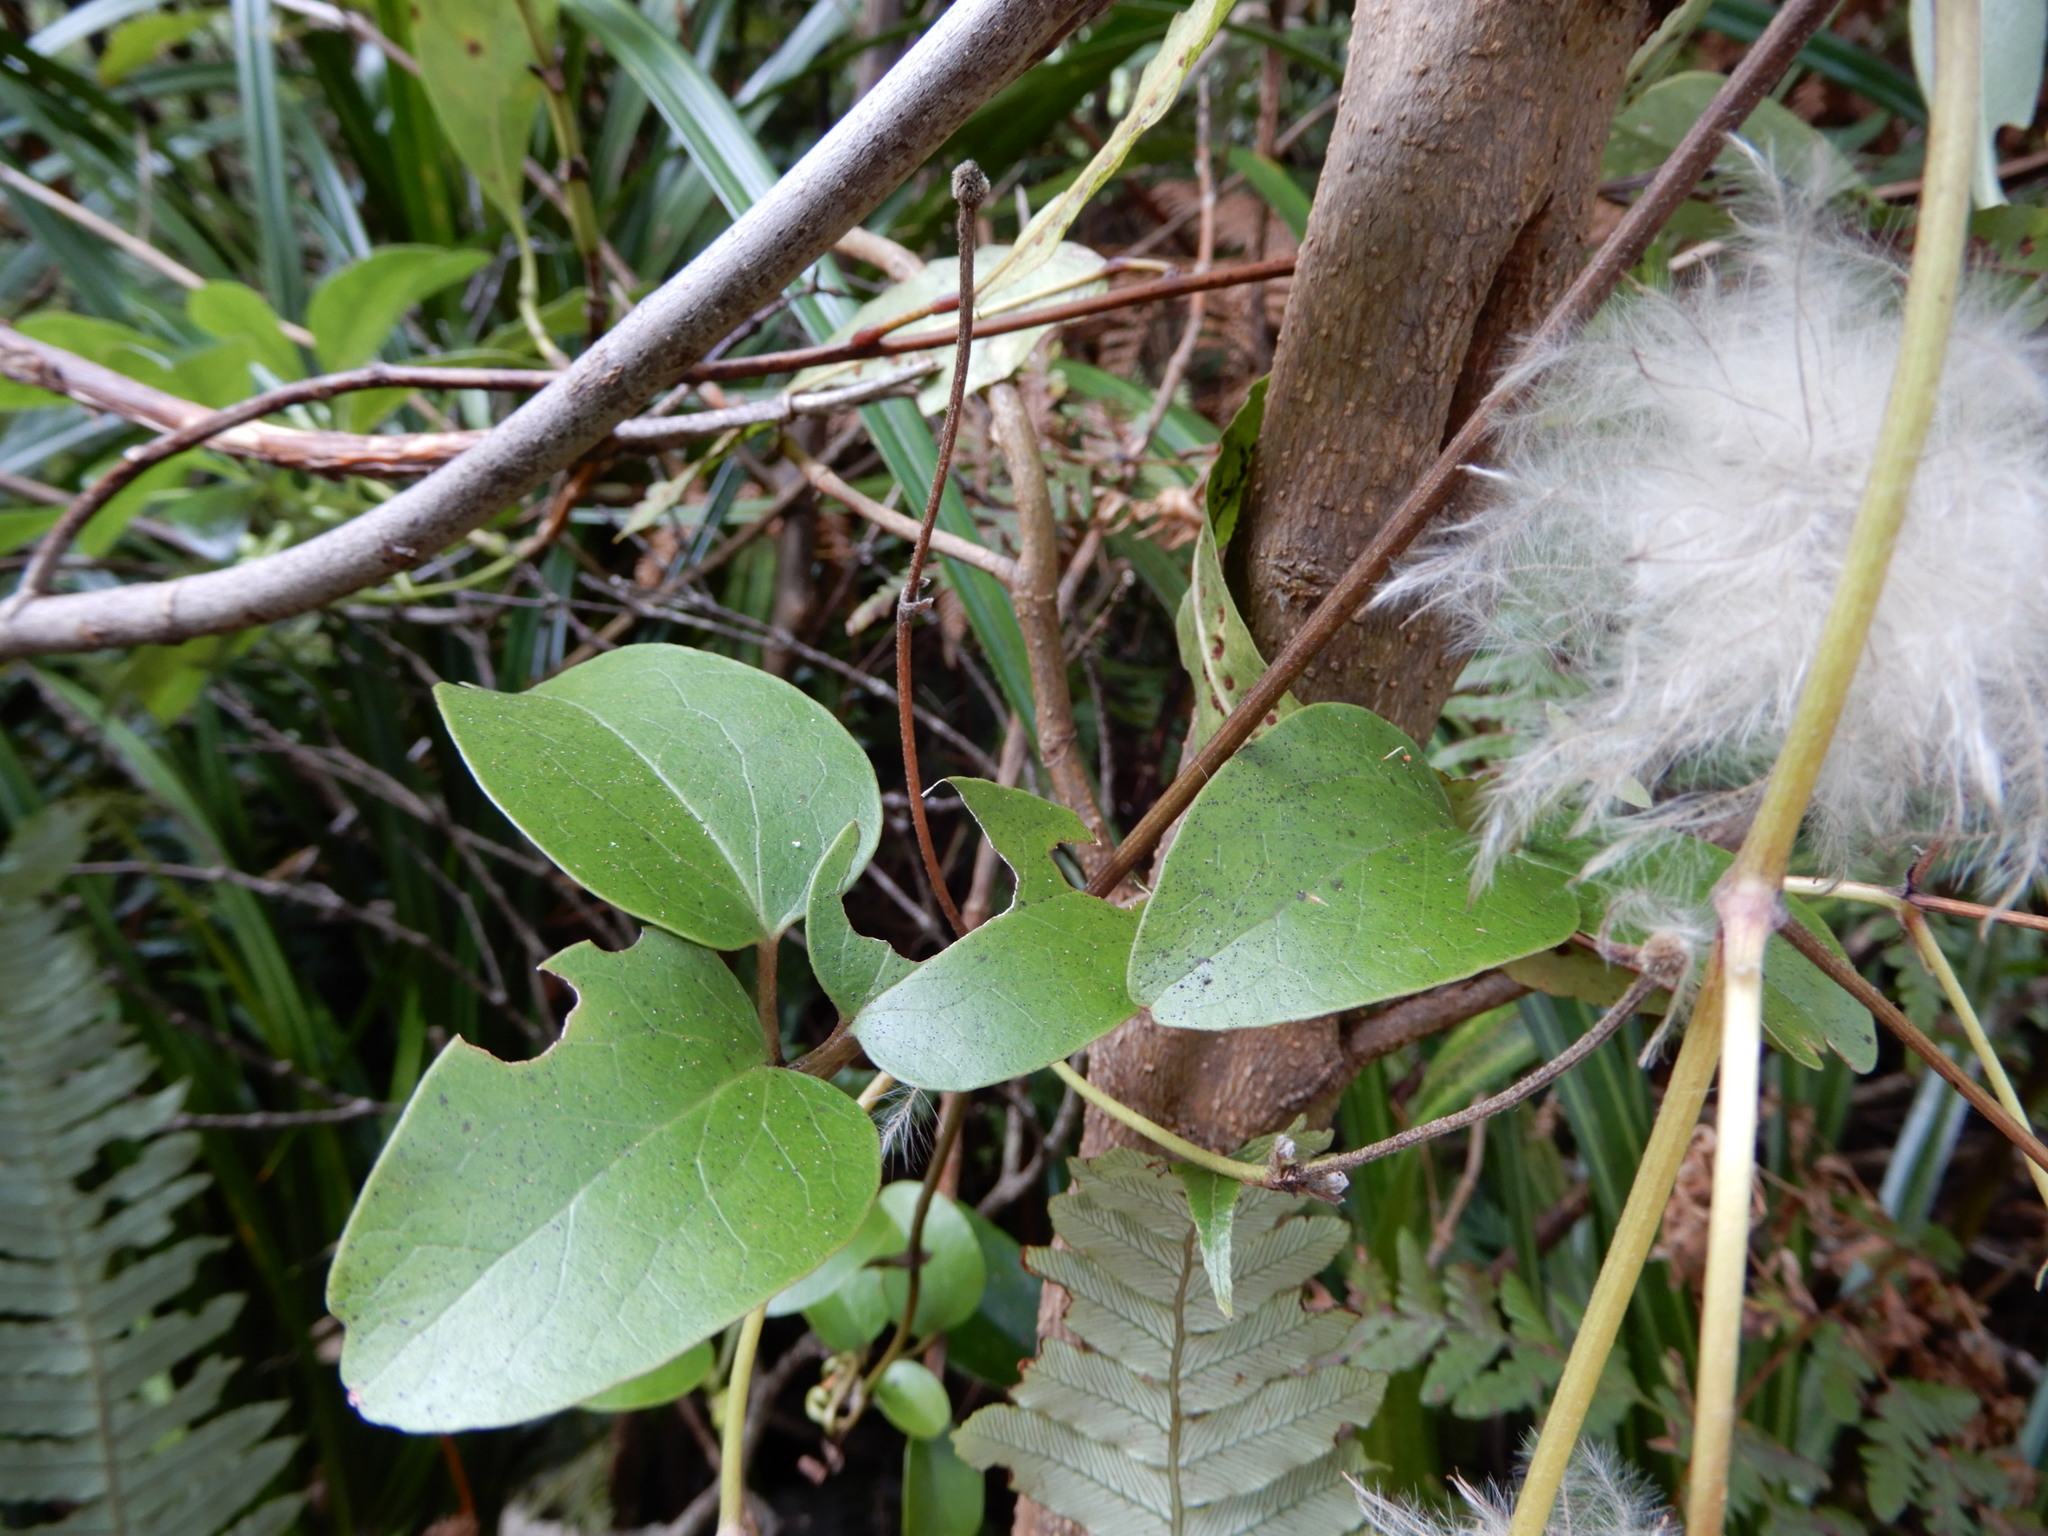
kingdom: Plantae
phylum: Tracheophyta
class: Magnoliopsida
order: Ranunculales
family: Ranunculaceae
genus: Clematis
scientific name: Clematis paniculata
